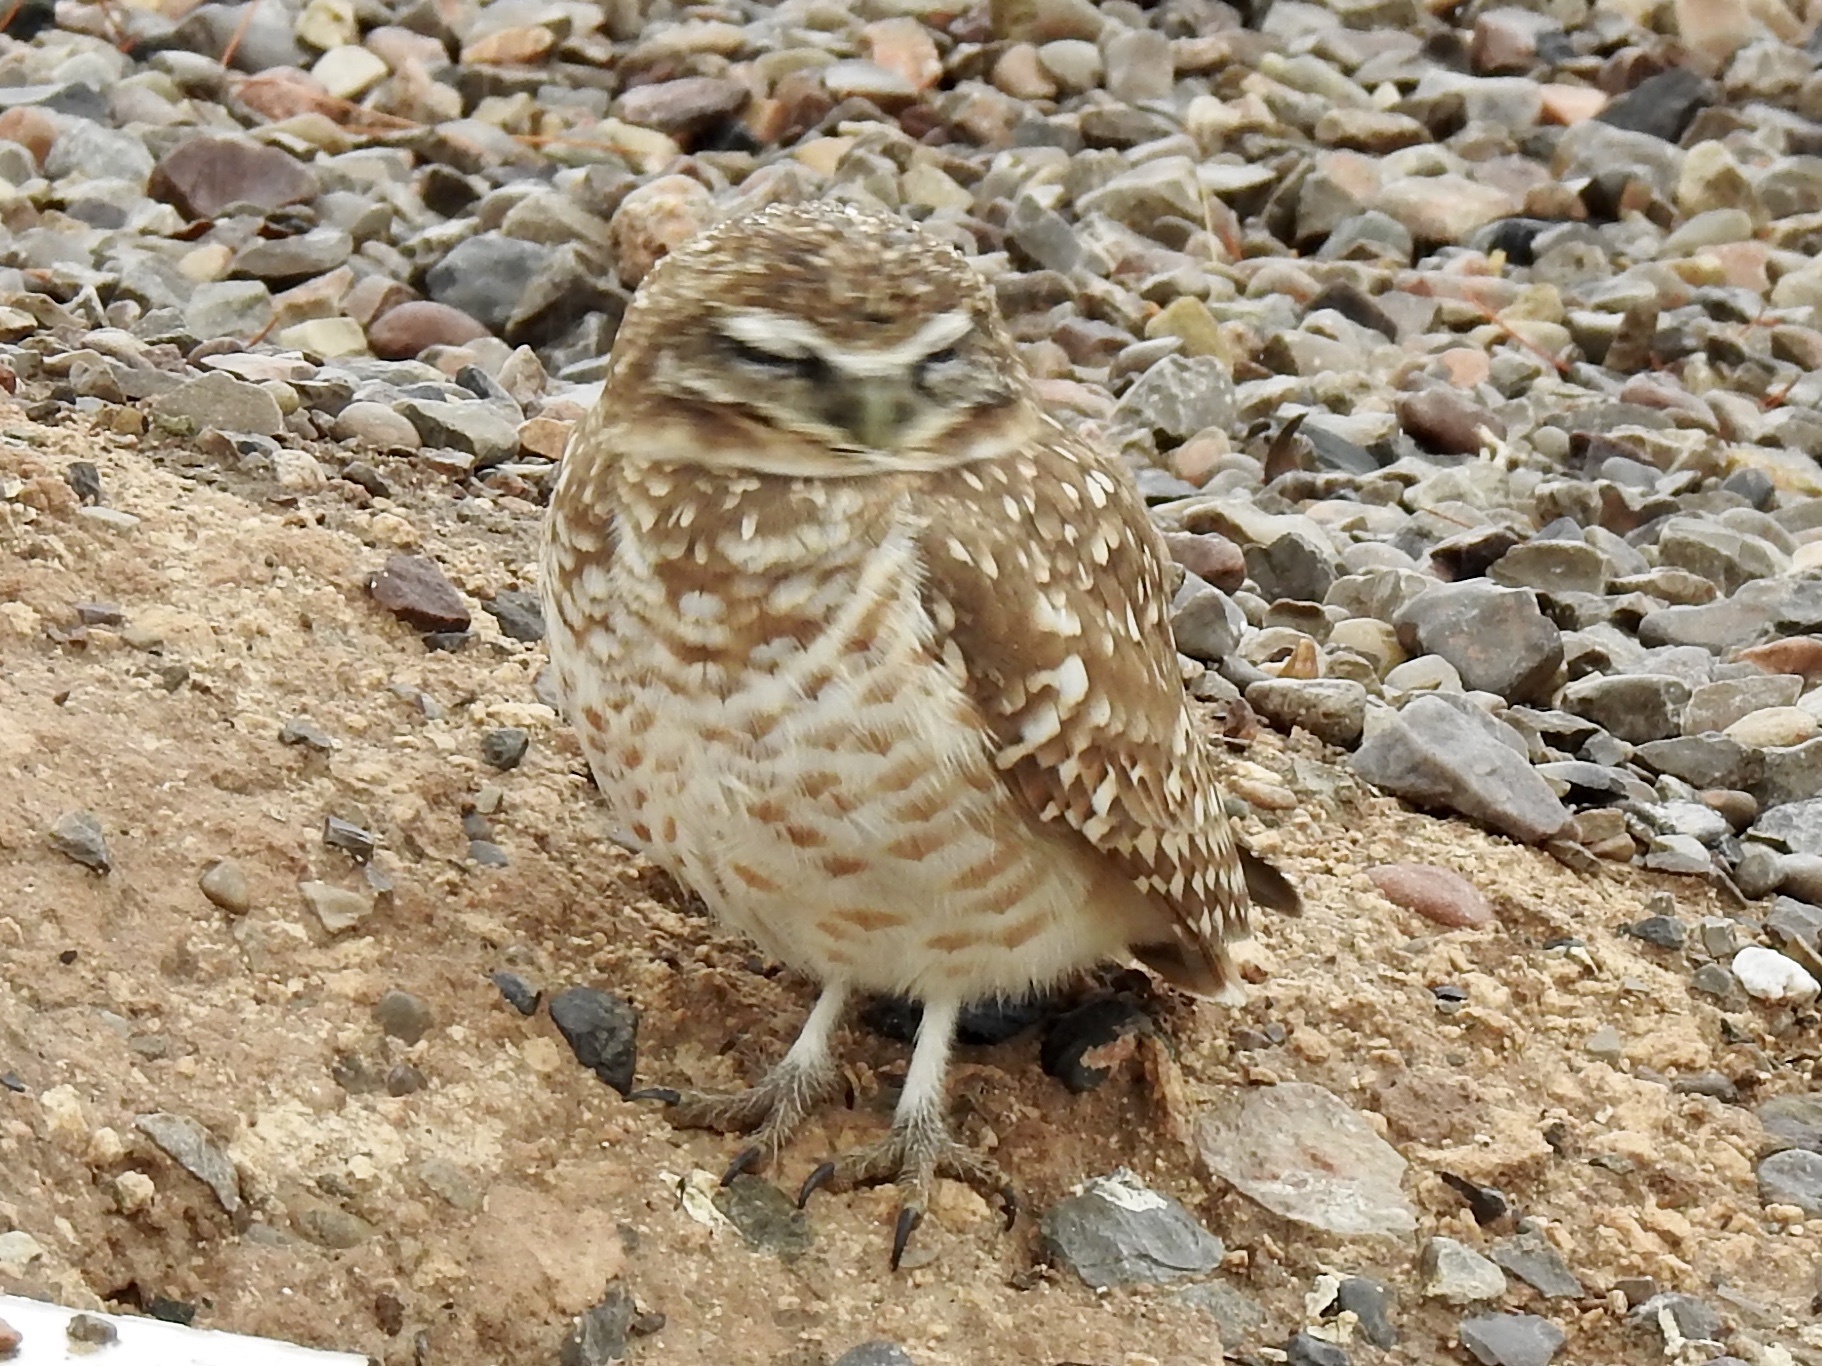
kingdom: Animalia
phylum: Chordata
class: Aves
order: Strigiformes
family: Strigidae
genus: Athene
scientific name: Athene cunicularia
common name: Burrowing owl
